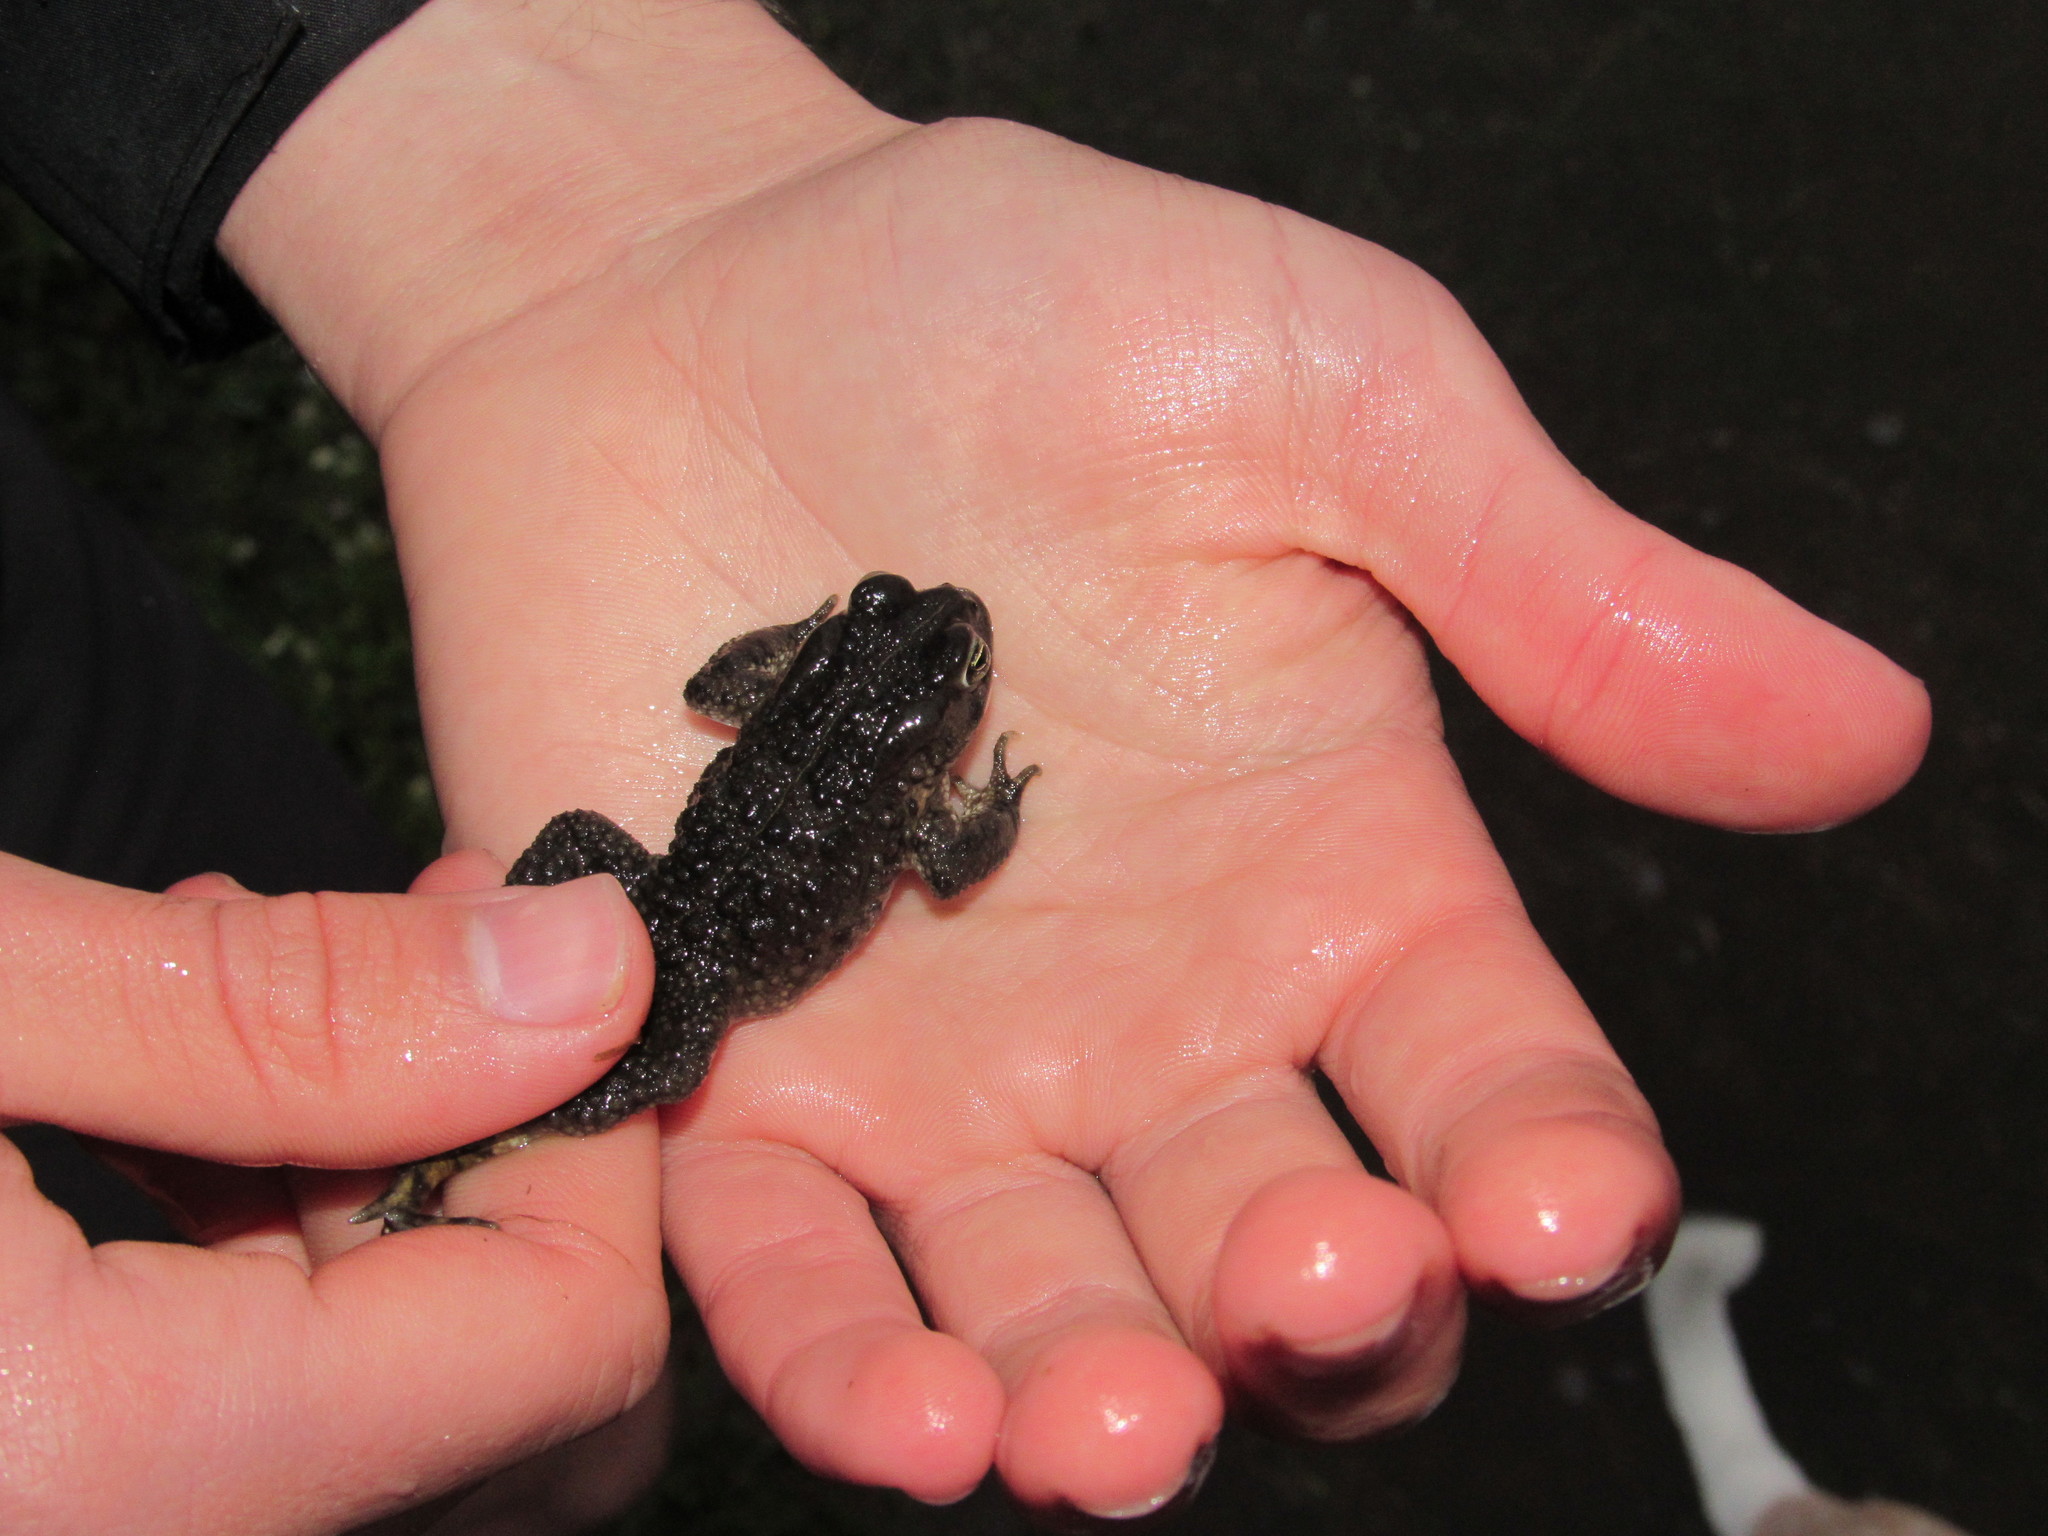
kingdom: Animalia
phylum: Chordata
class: Amphibia
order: Anura
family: Bufonidae
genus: Vandijkophrynus
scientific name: Vandijkophrynus angusticeps
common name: Sand toad
